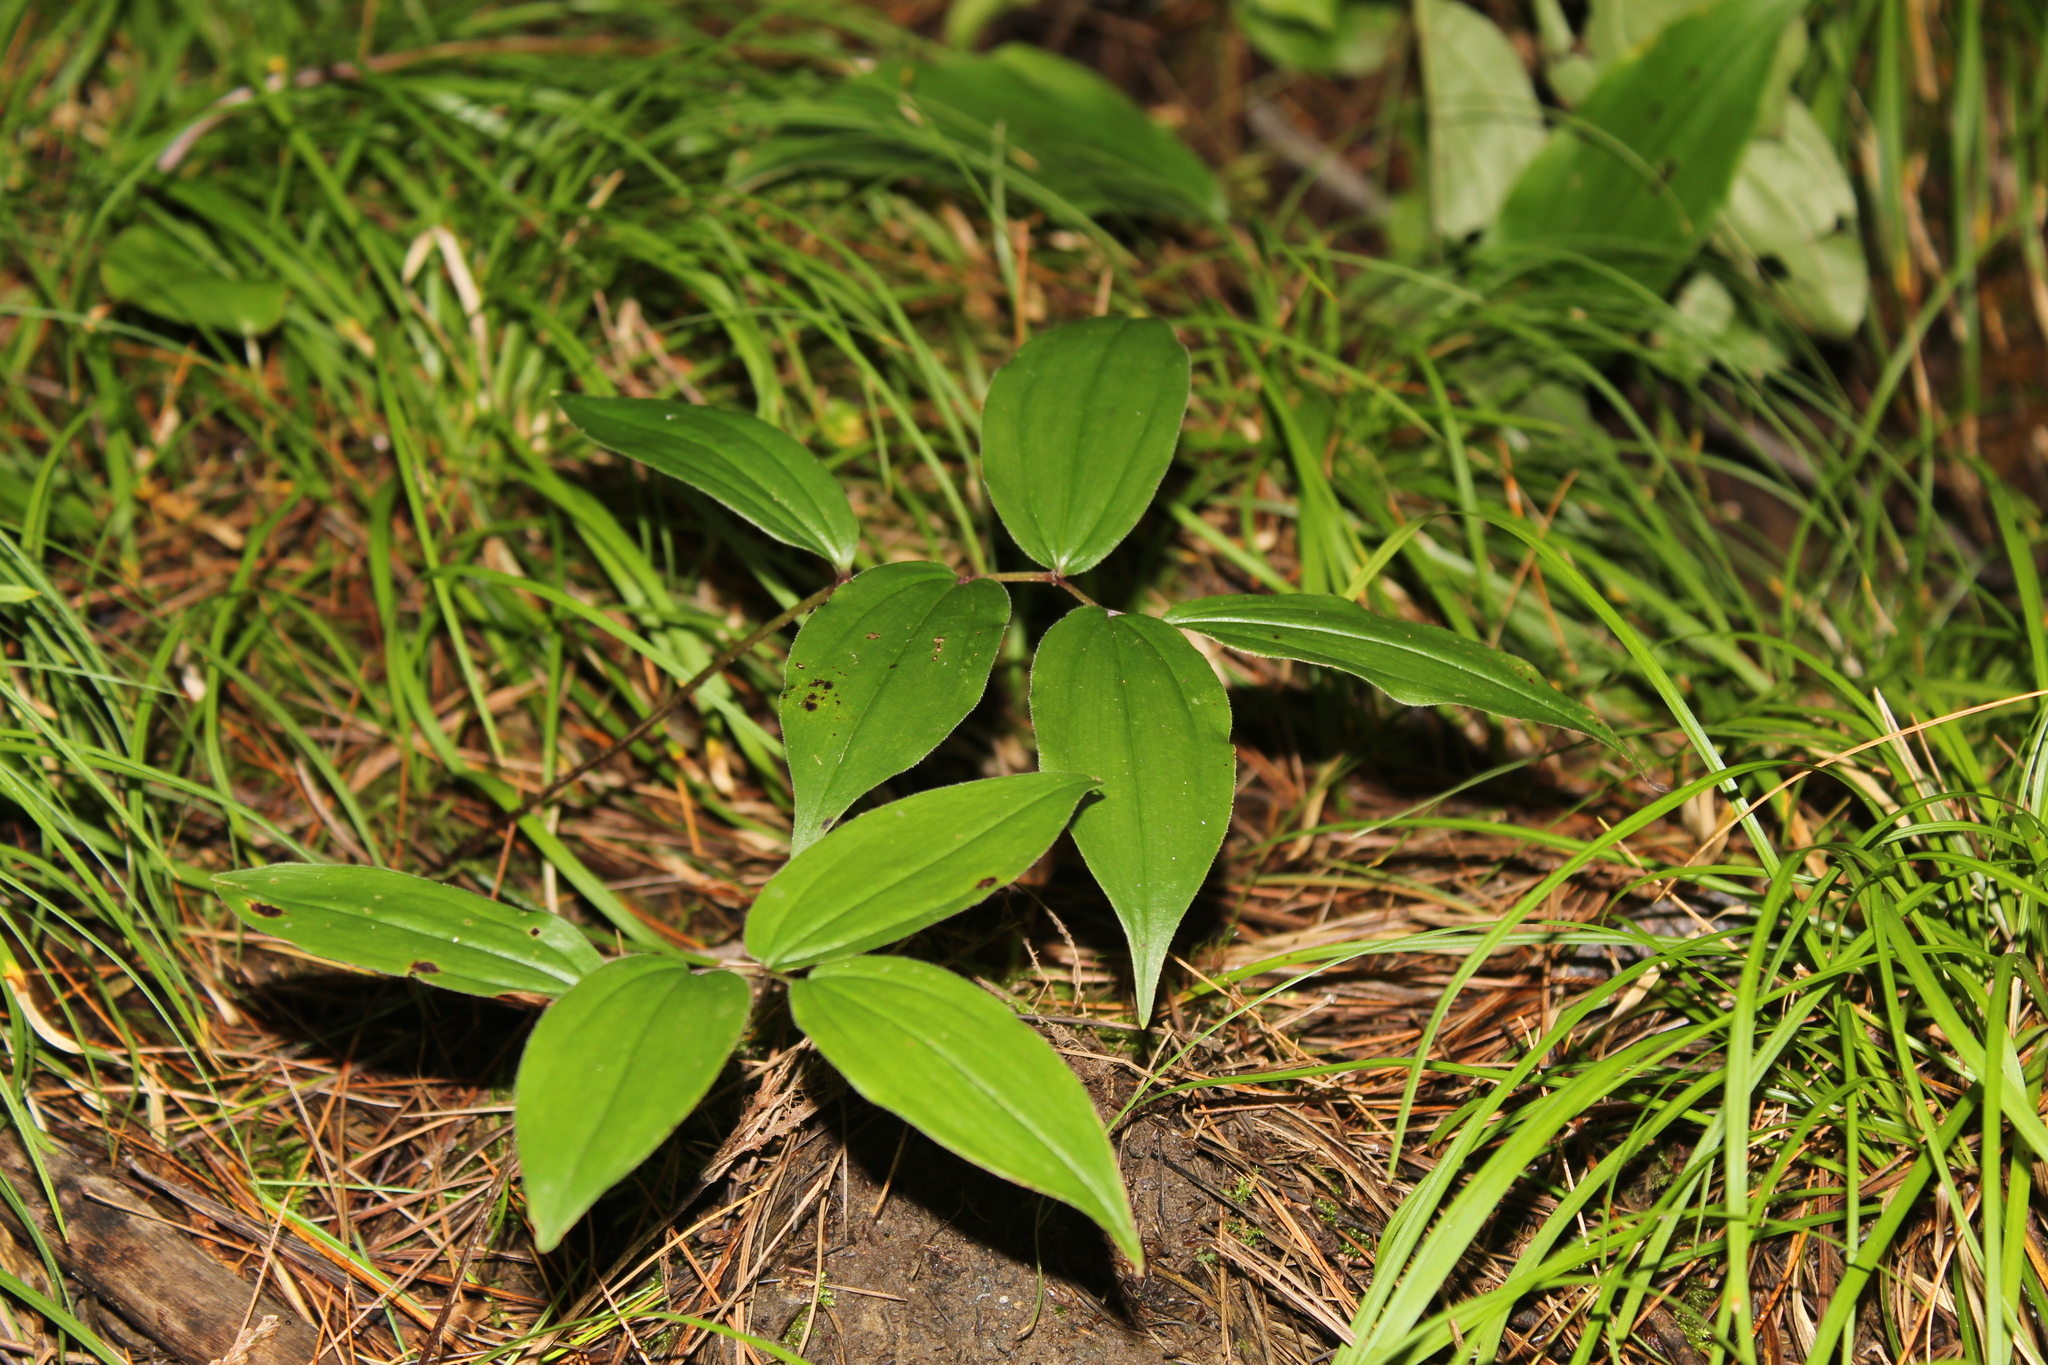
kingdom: Plantae
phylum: Tracheophyta
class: Liliopsida
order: Asparagales
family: Asparagaceae
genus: Maianthemum
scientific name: Maianthemum racemosum
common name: False spikenard
